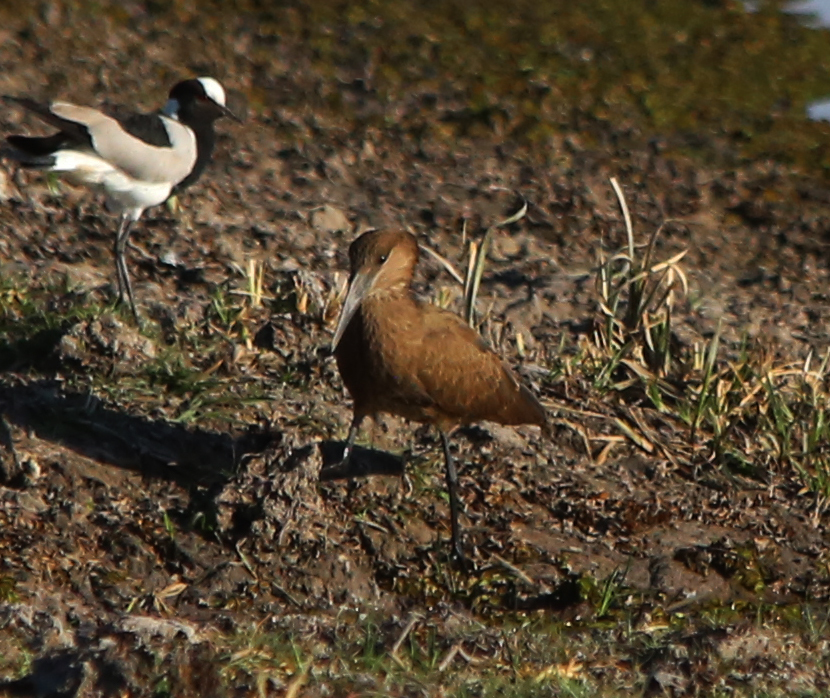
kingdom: Animalia
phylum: Chordata
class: Aves
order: Pelecaniformes
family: Scopidae
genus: Scopus
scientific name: Scopus umbretta
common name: Hamerkop
